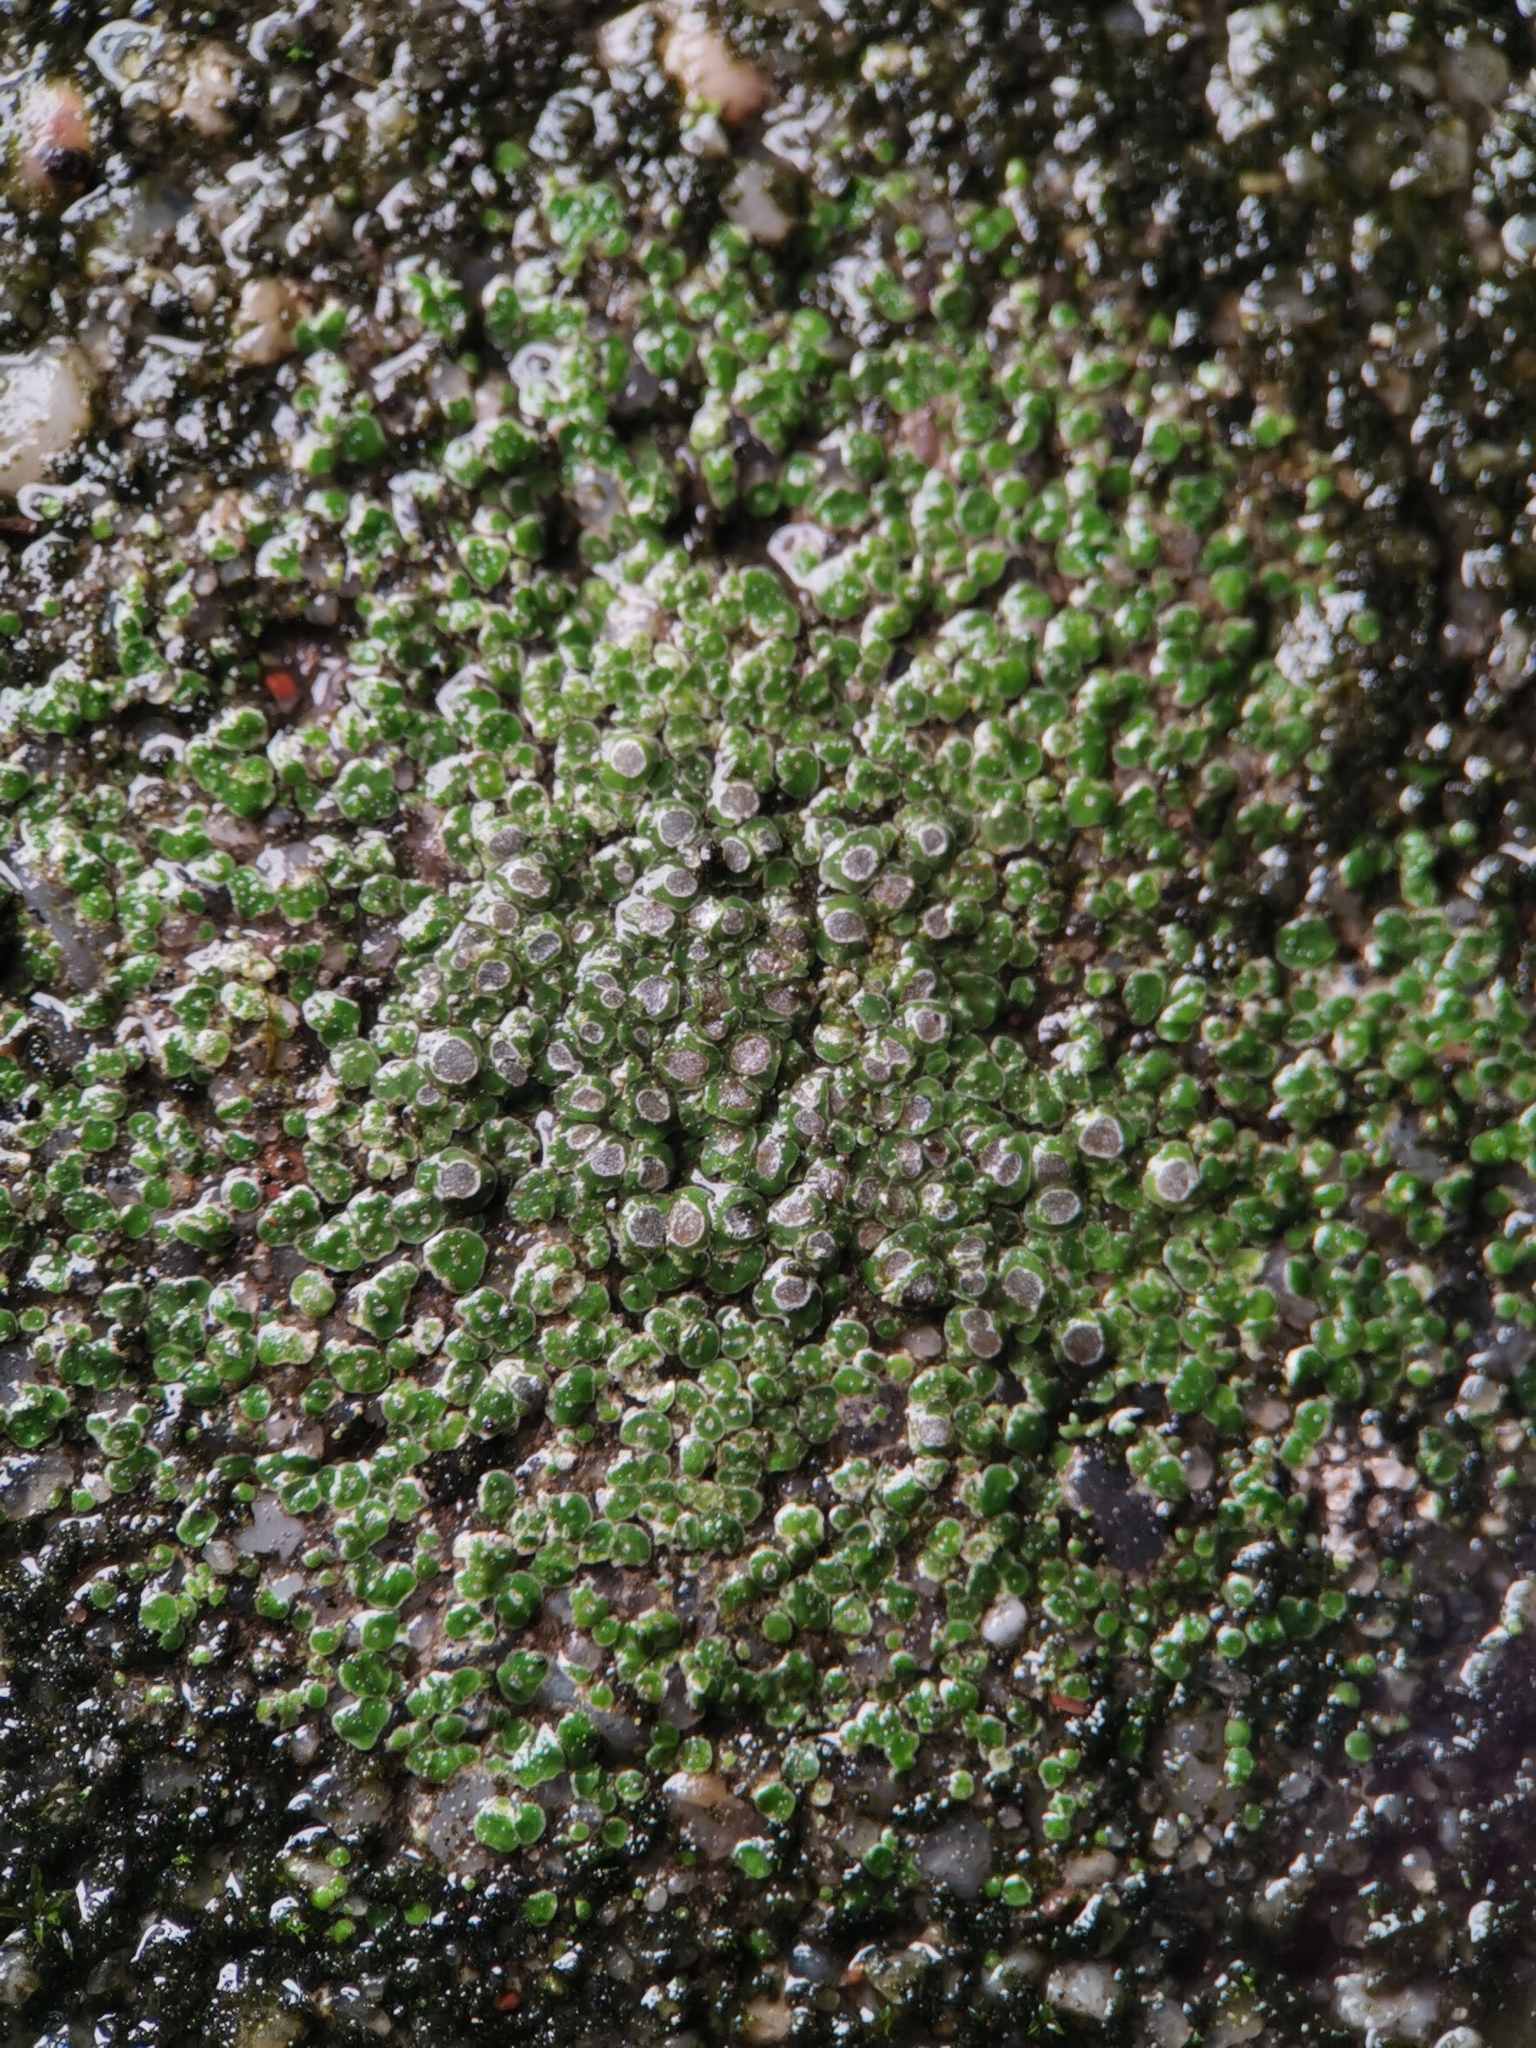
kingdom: Fungi
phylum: Ascomycota
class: Lecanoromycetes
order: Pertusariales
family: Megasporaceae
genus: Circinaria
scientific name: Circinaria contorta
